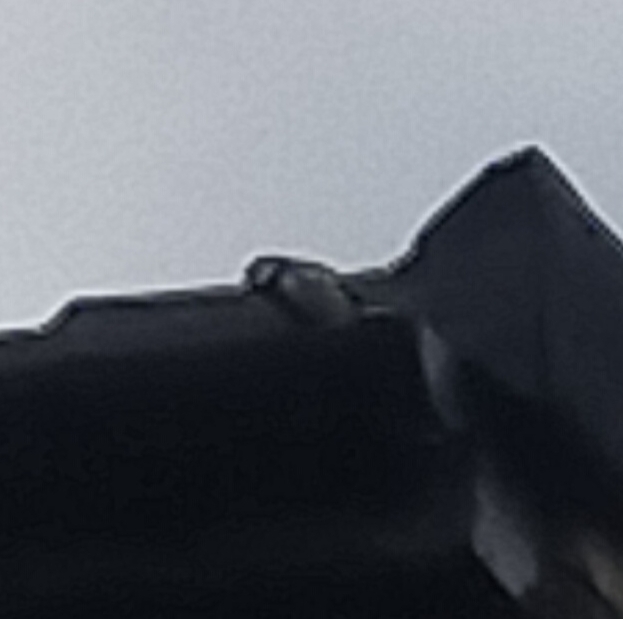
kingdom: Animalia
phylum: Chordata
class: Aves
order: Passeriformes
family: Paridae
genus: Parus
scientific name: Parus major
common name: Great tit
